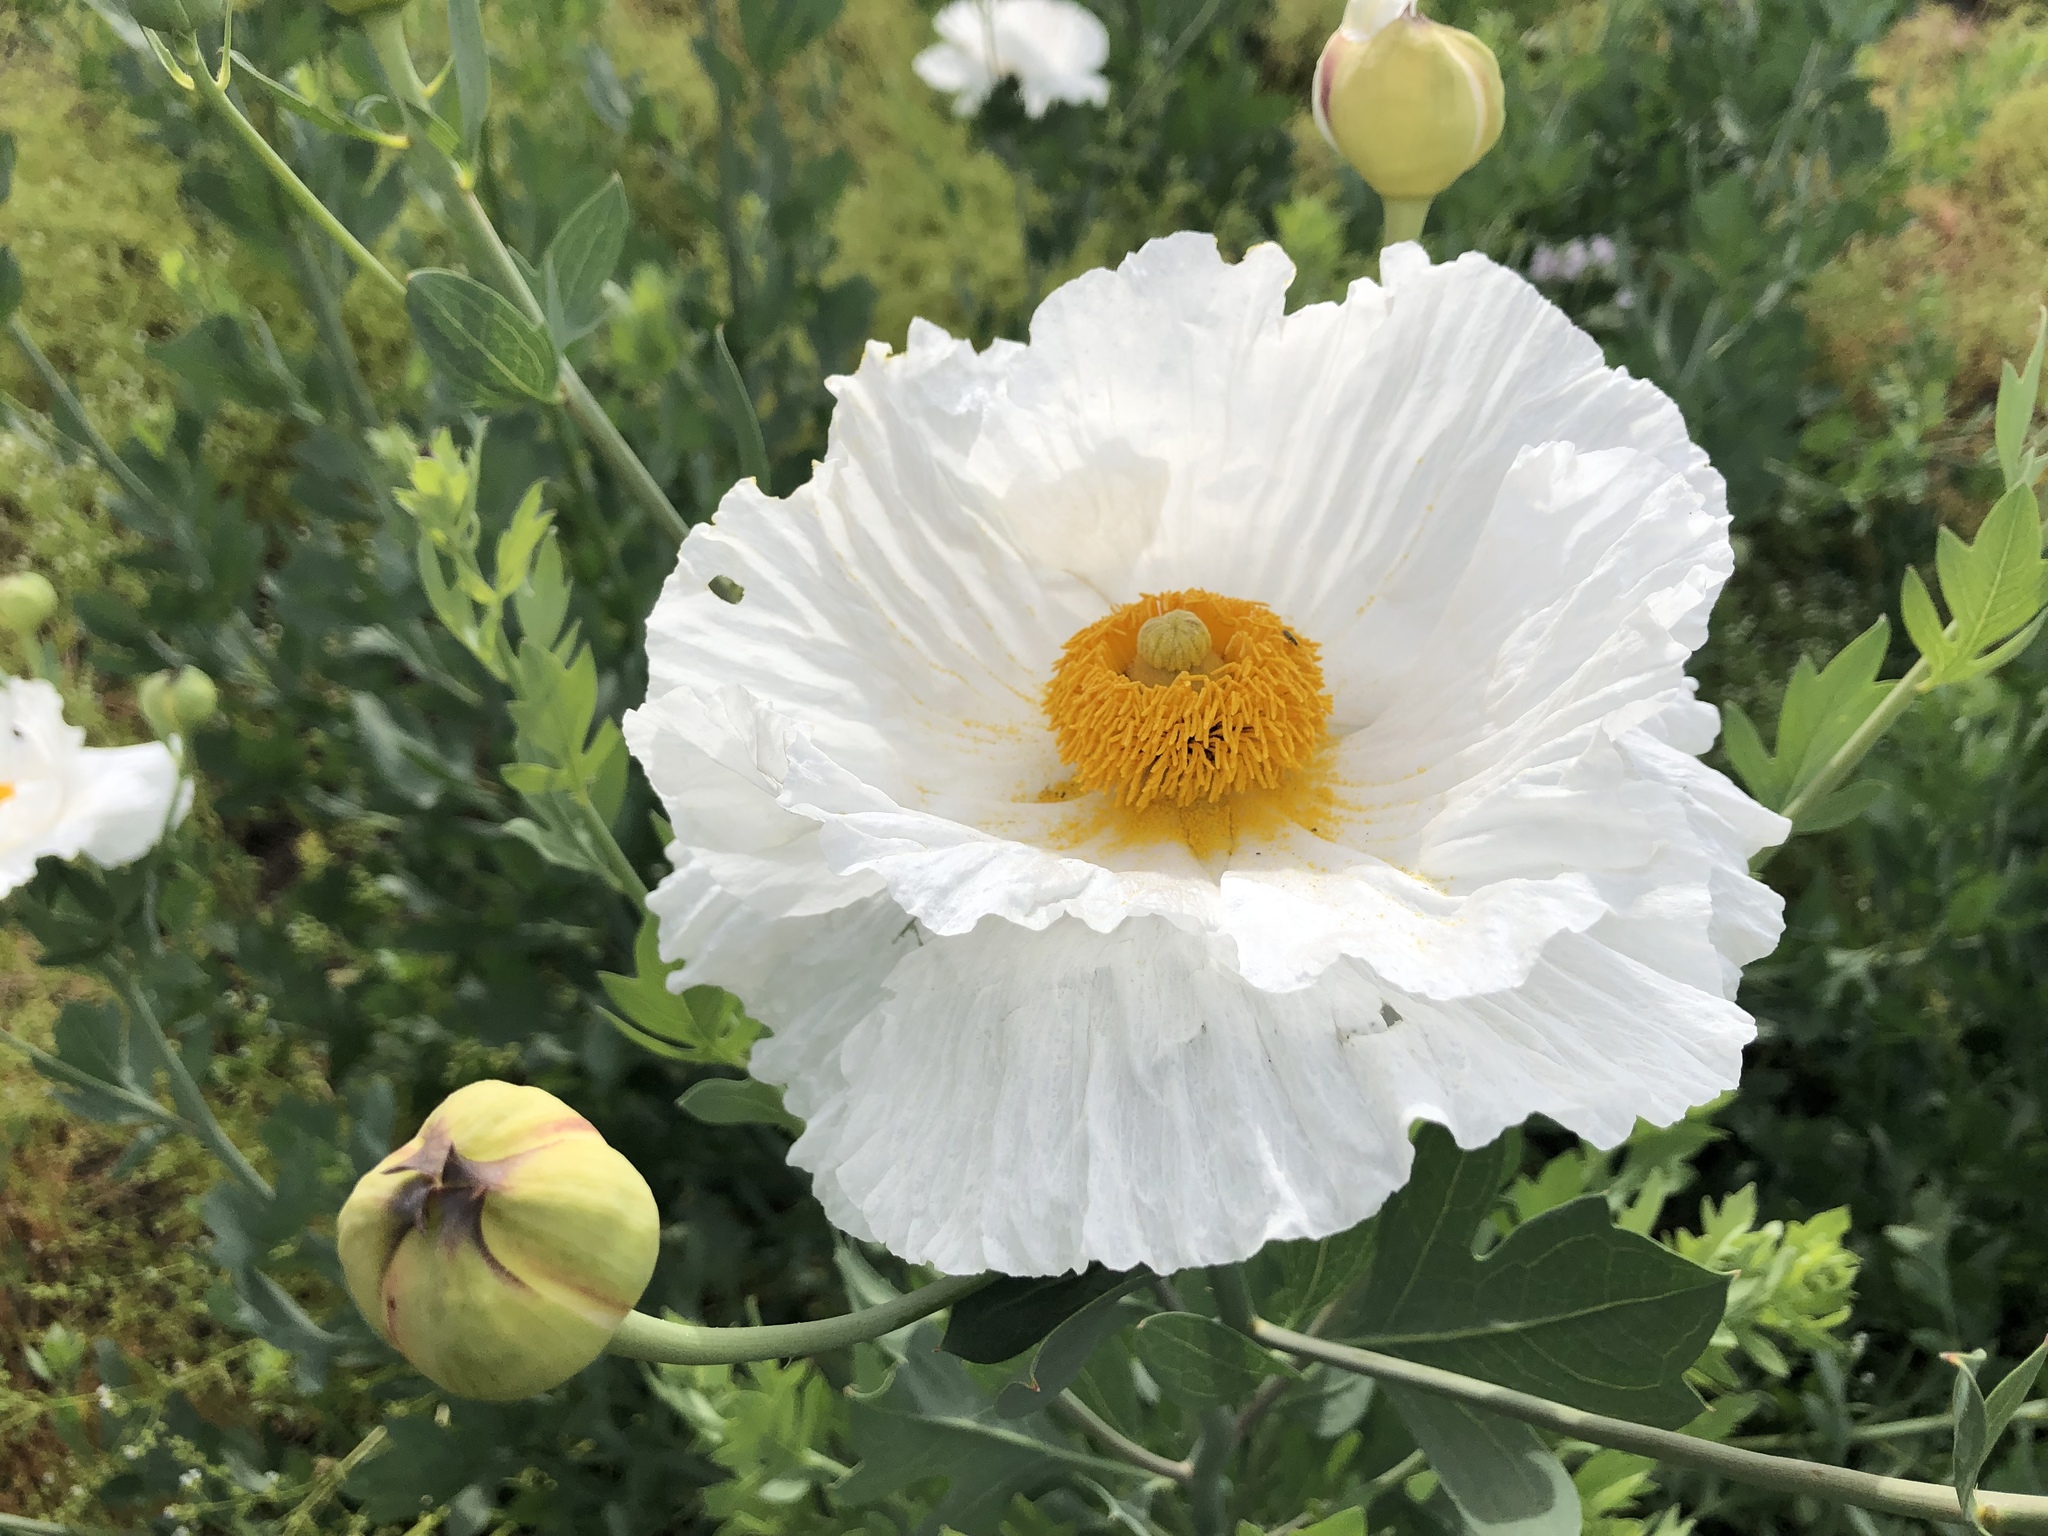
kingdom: Plantae
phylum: Tracheophyta
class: Magnoliopsida
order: Ranunculales
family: Papaveraceae
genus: Romneya
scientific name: Romneya coulteri
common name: California tree-poppy
